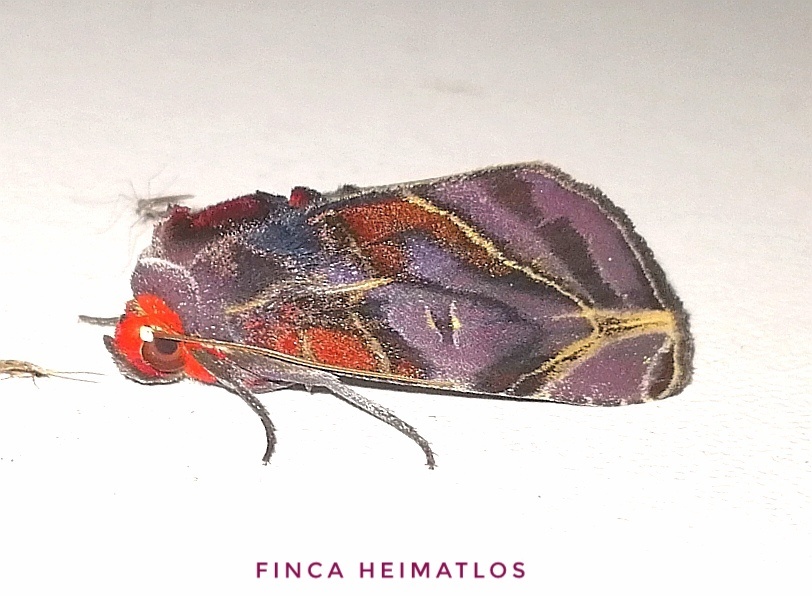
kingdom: Animalia
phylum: Arthropoda
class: Insecta
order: Lepidoptera
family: Erebidae
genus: Hemicephalis
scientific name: Hemicephalis alesa
